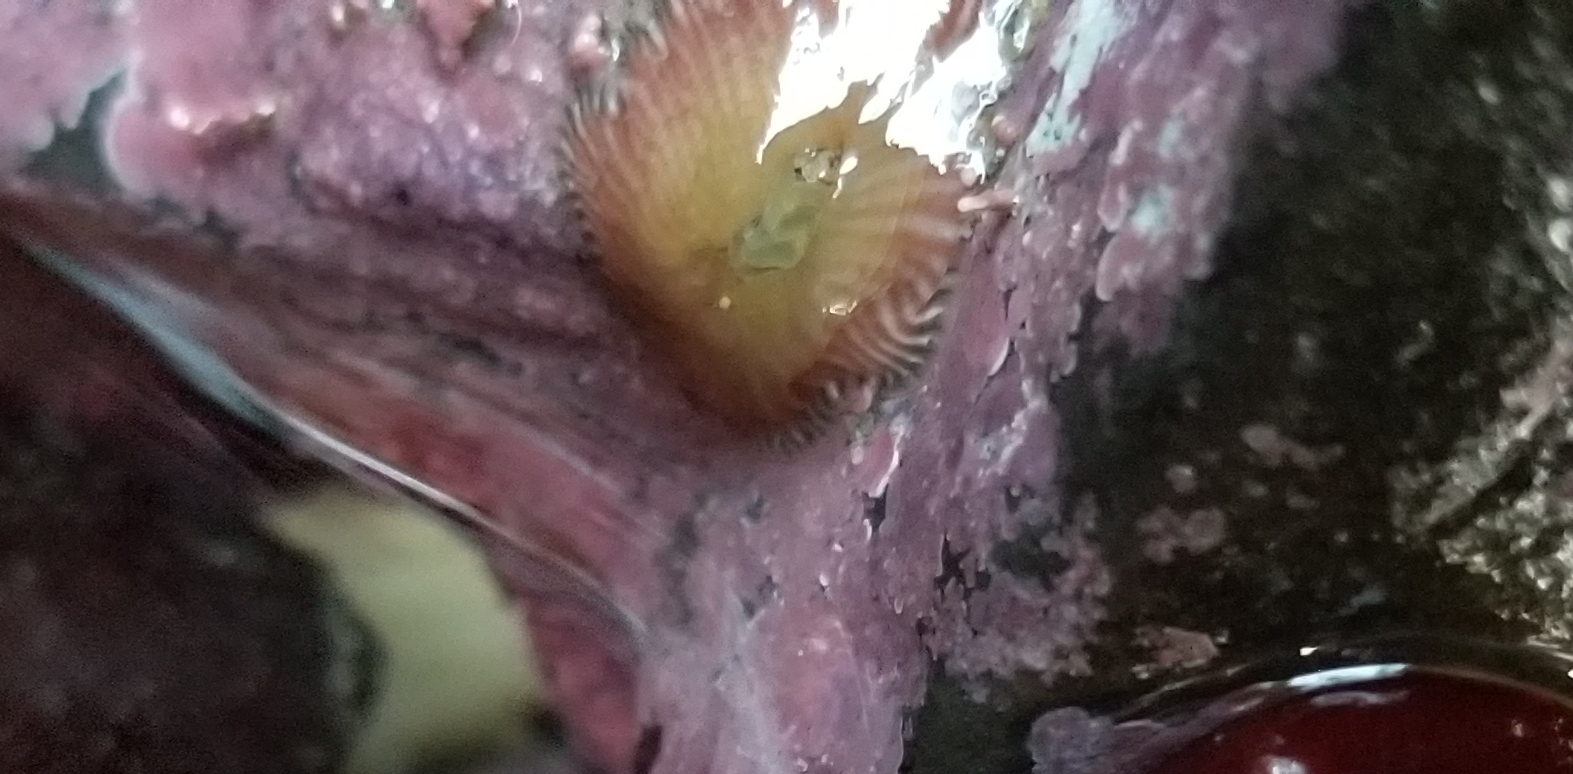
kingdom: Animalia
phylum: Cnidaria
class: Anthozoa
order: Actiniaria
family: Actiniidae
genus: Epiactis
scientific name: Epiactis prolifera
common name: Brooding anemone
